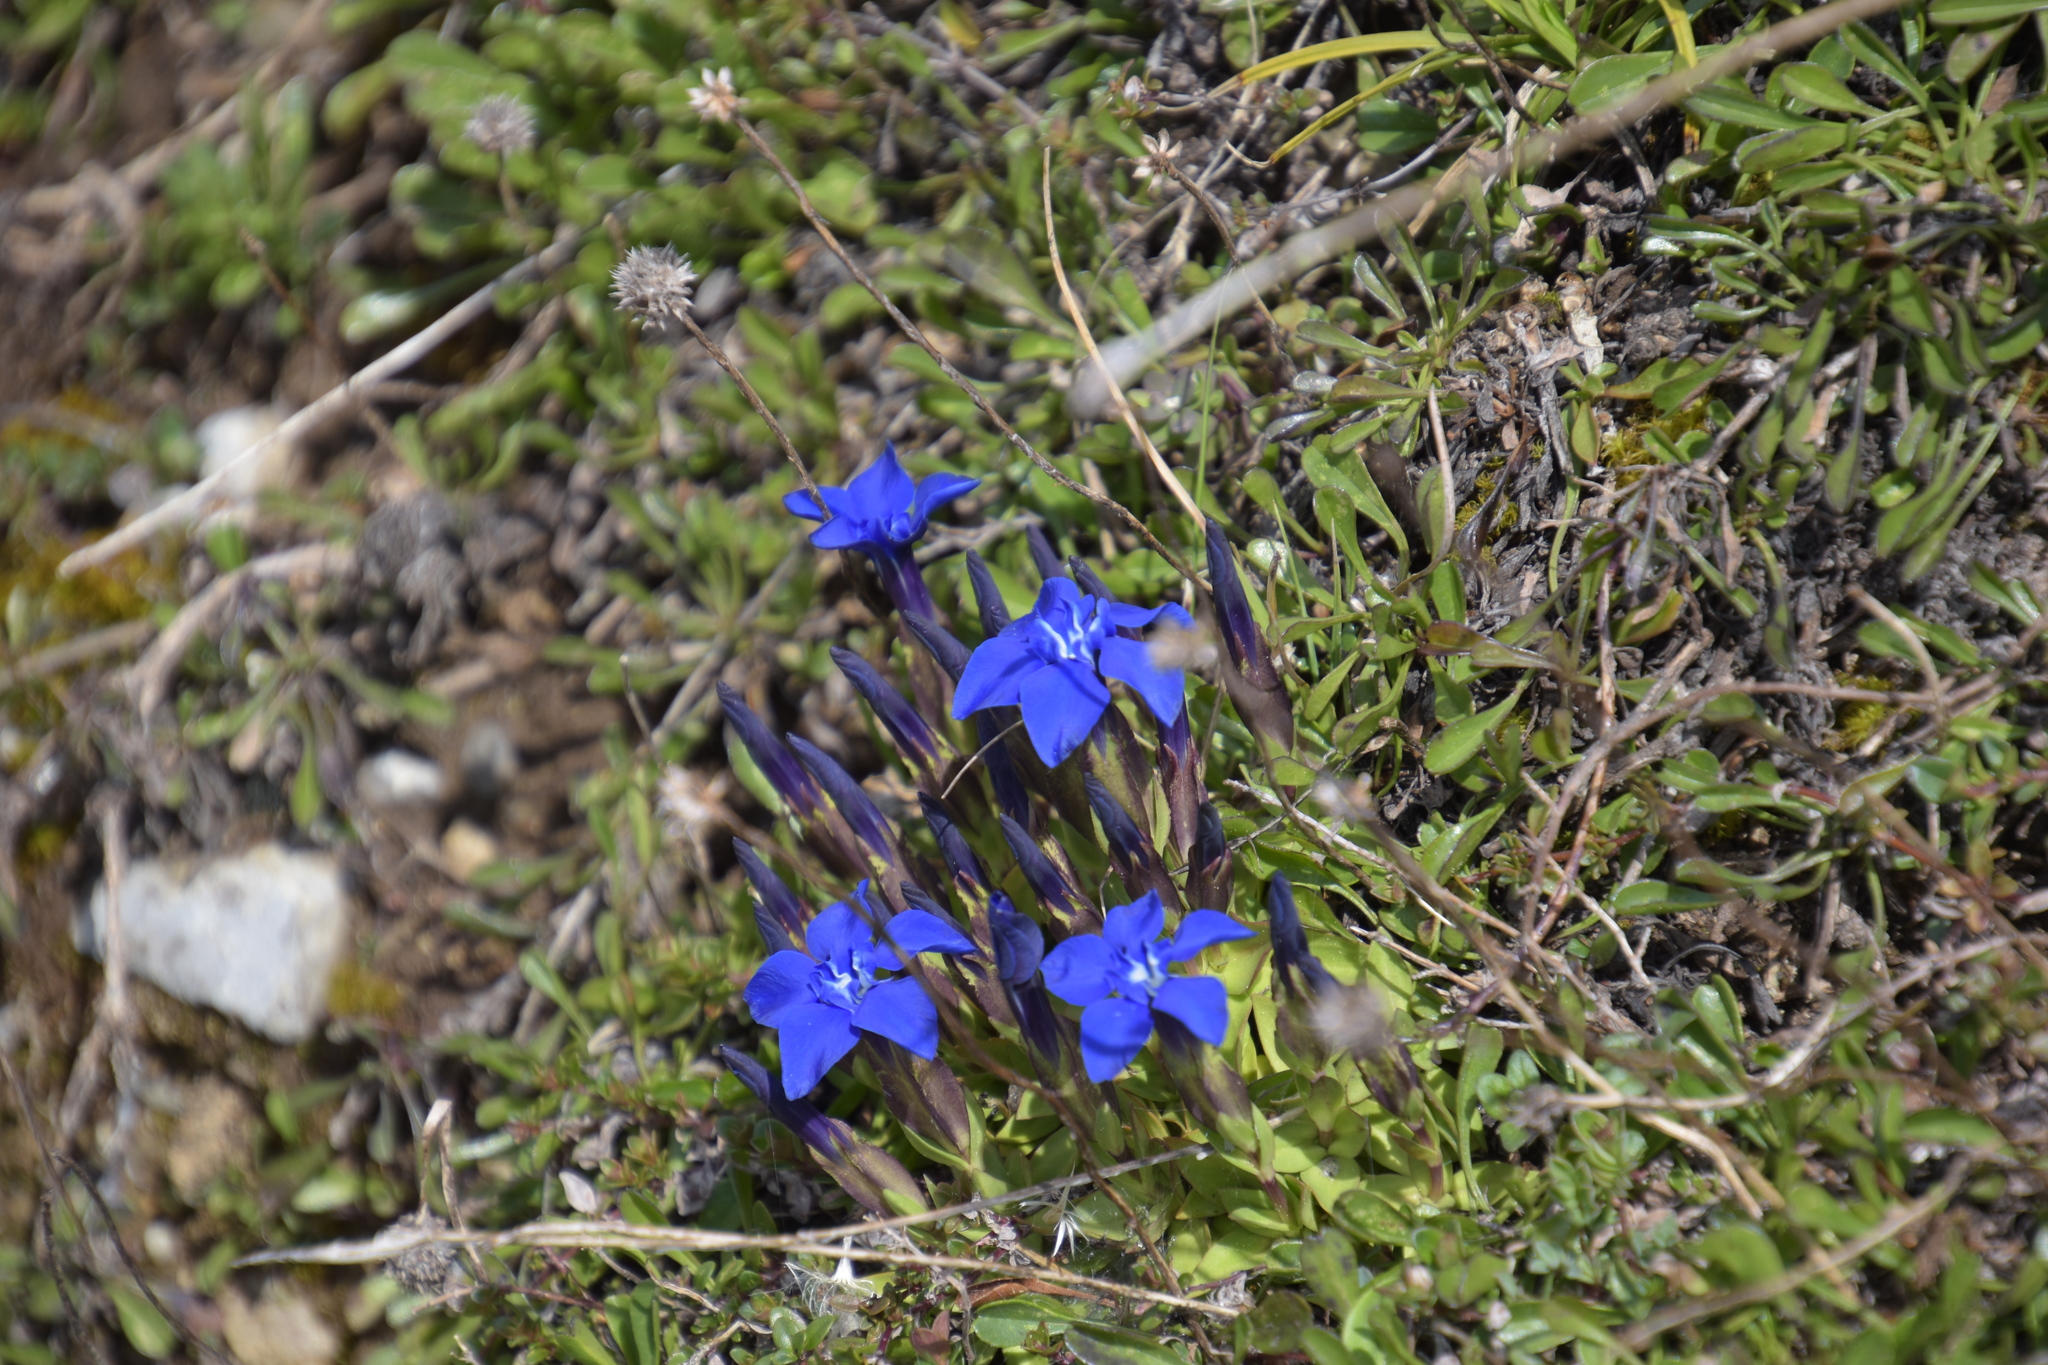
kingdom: Plantae
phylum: Tracheophyta
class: Magnoliopsida
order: Gentianales
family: Gentianaceae
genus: Gentiana
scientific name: Gentiana verna
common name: Spring gentian
